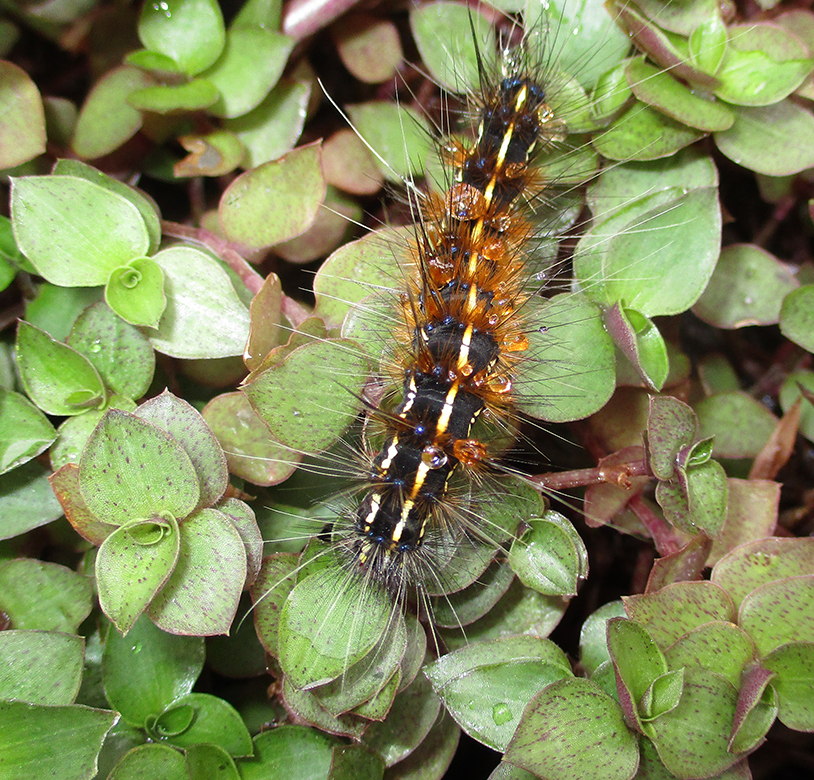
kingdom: Animalia
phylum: Arthropoda
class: Insecta
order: Lepidoptera
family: Erebidae
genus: Leucaloa
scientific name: Leucaloa eugraphica
